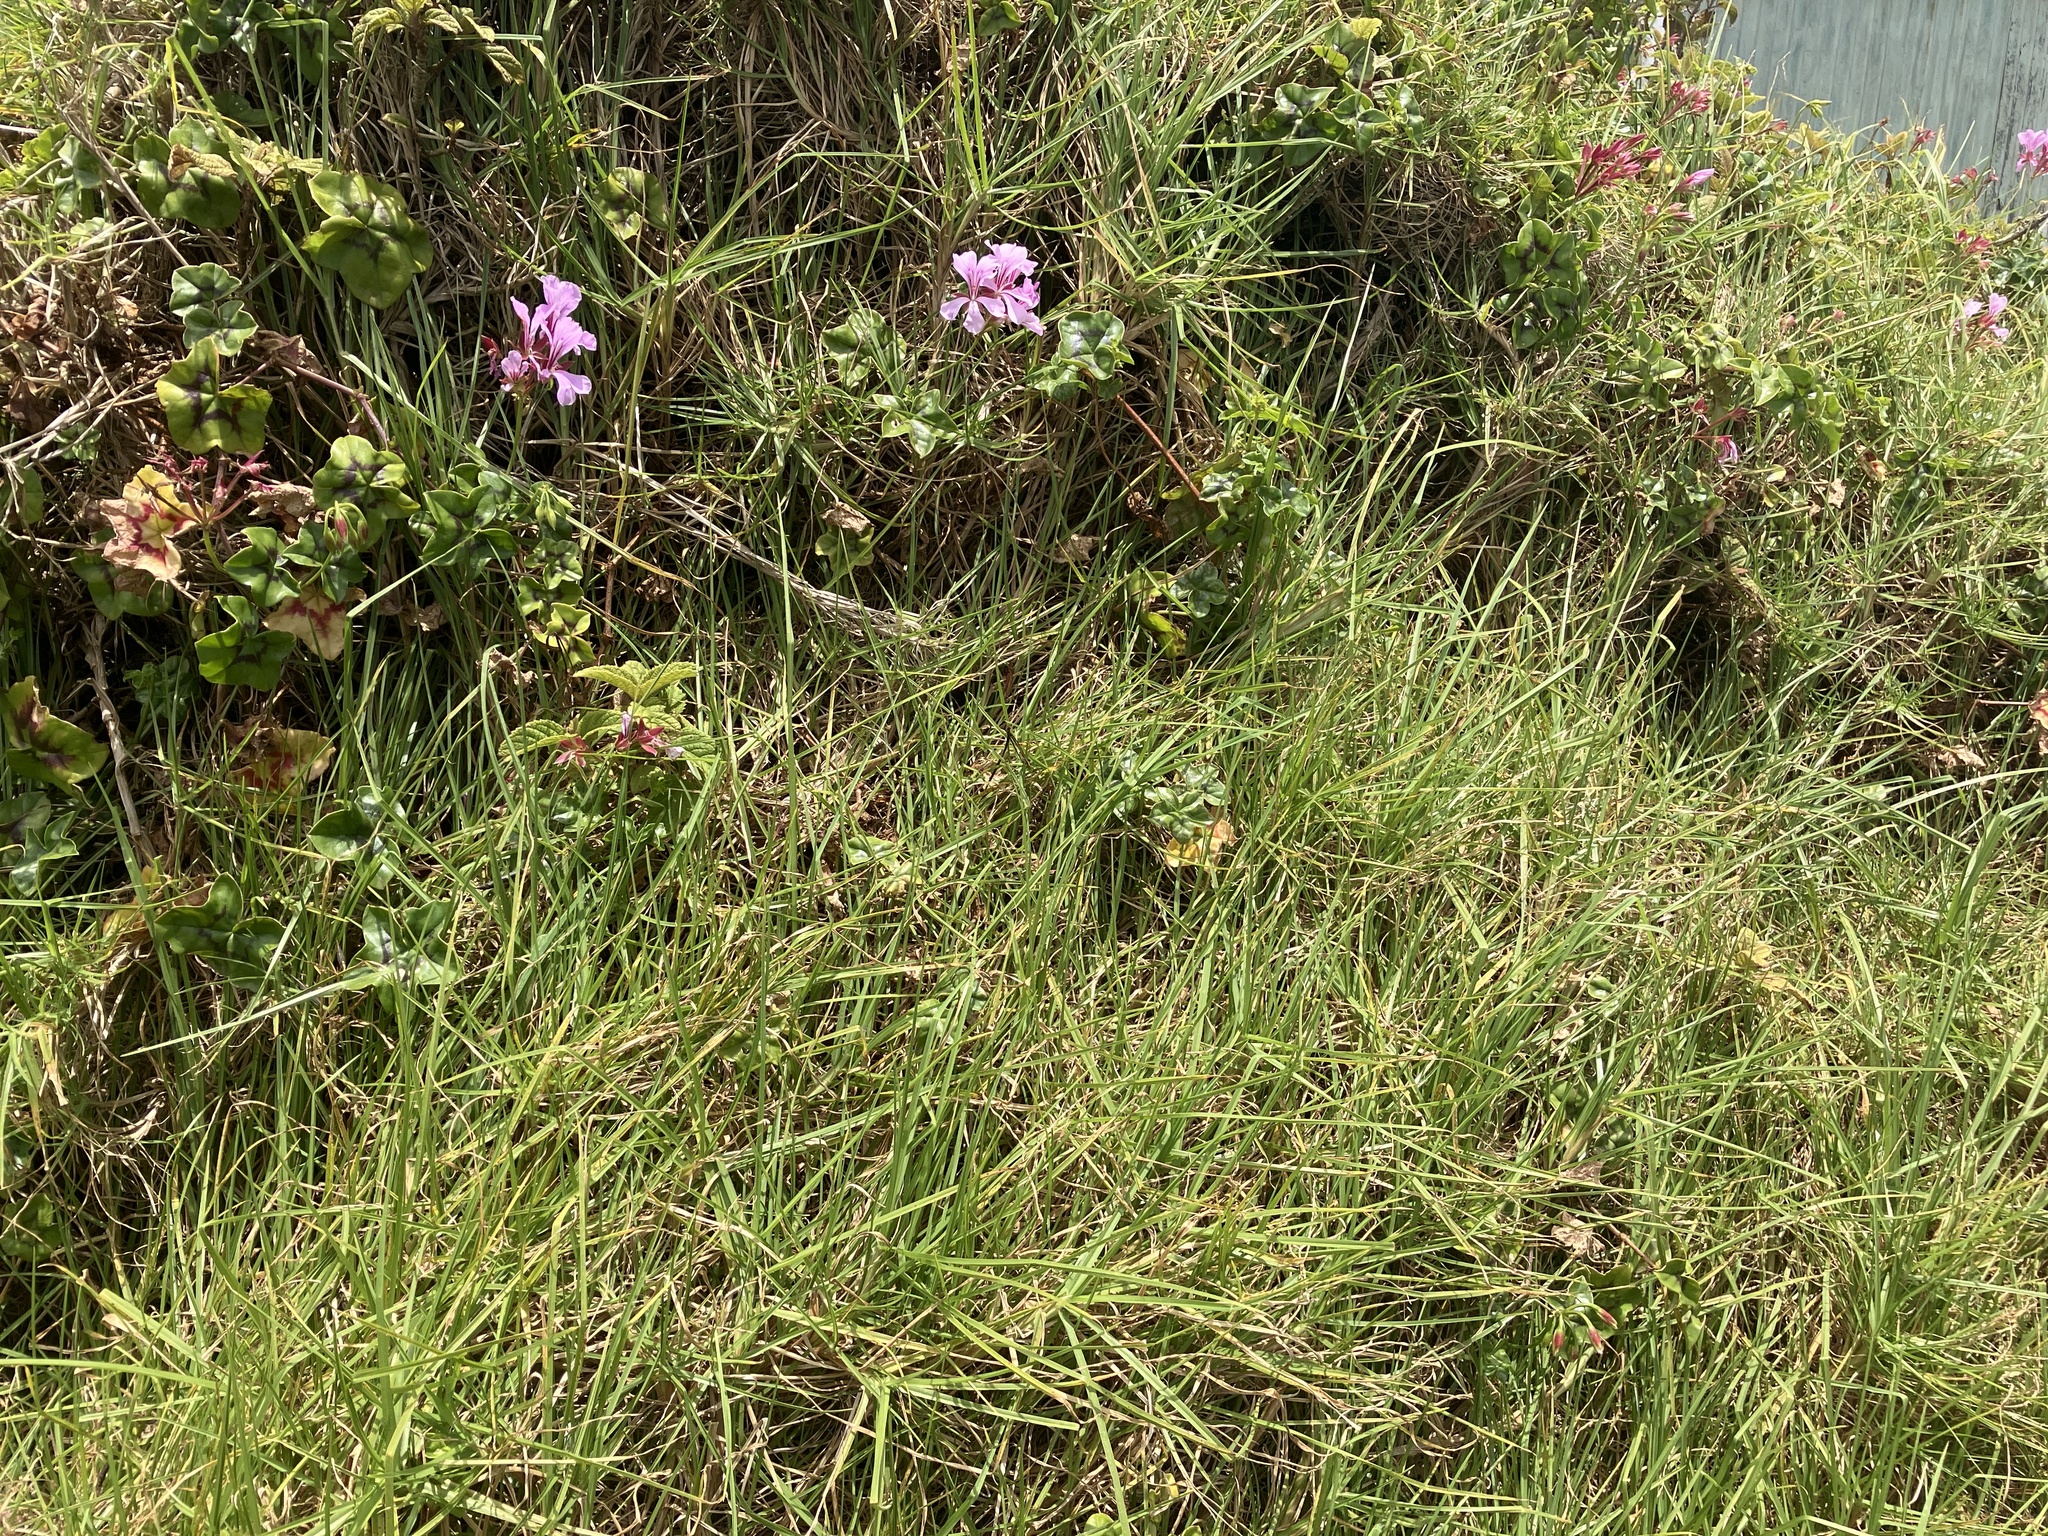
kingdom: Plantae
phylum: Tracheophyta
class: Magnoliopsida
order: Geraniales
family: Geraniaceae
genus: Pelargonium
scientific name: Pelargonium hybridum
